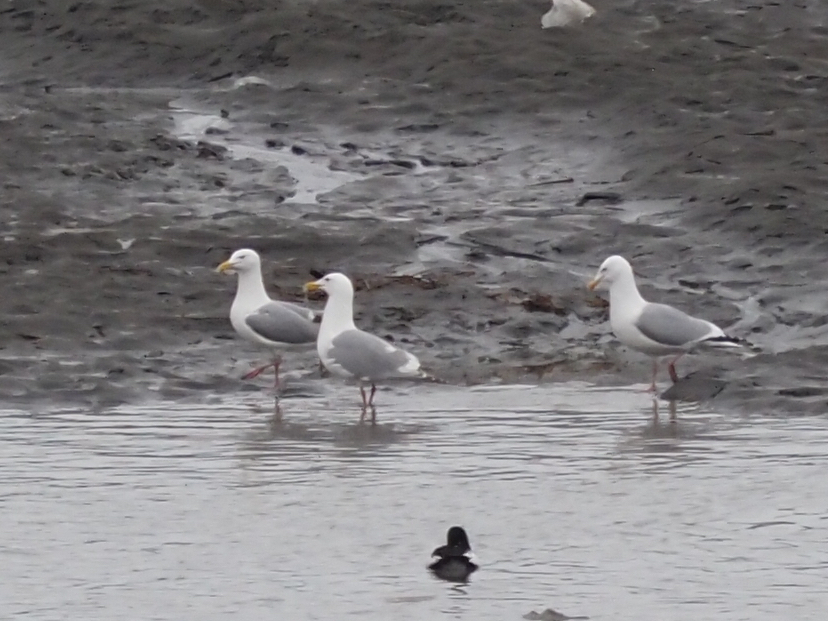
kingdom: Animalia
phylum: Chordata
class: Aves
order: Charadriiformes
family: Laridae
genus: Larus
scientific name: Larus
